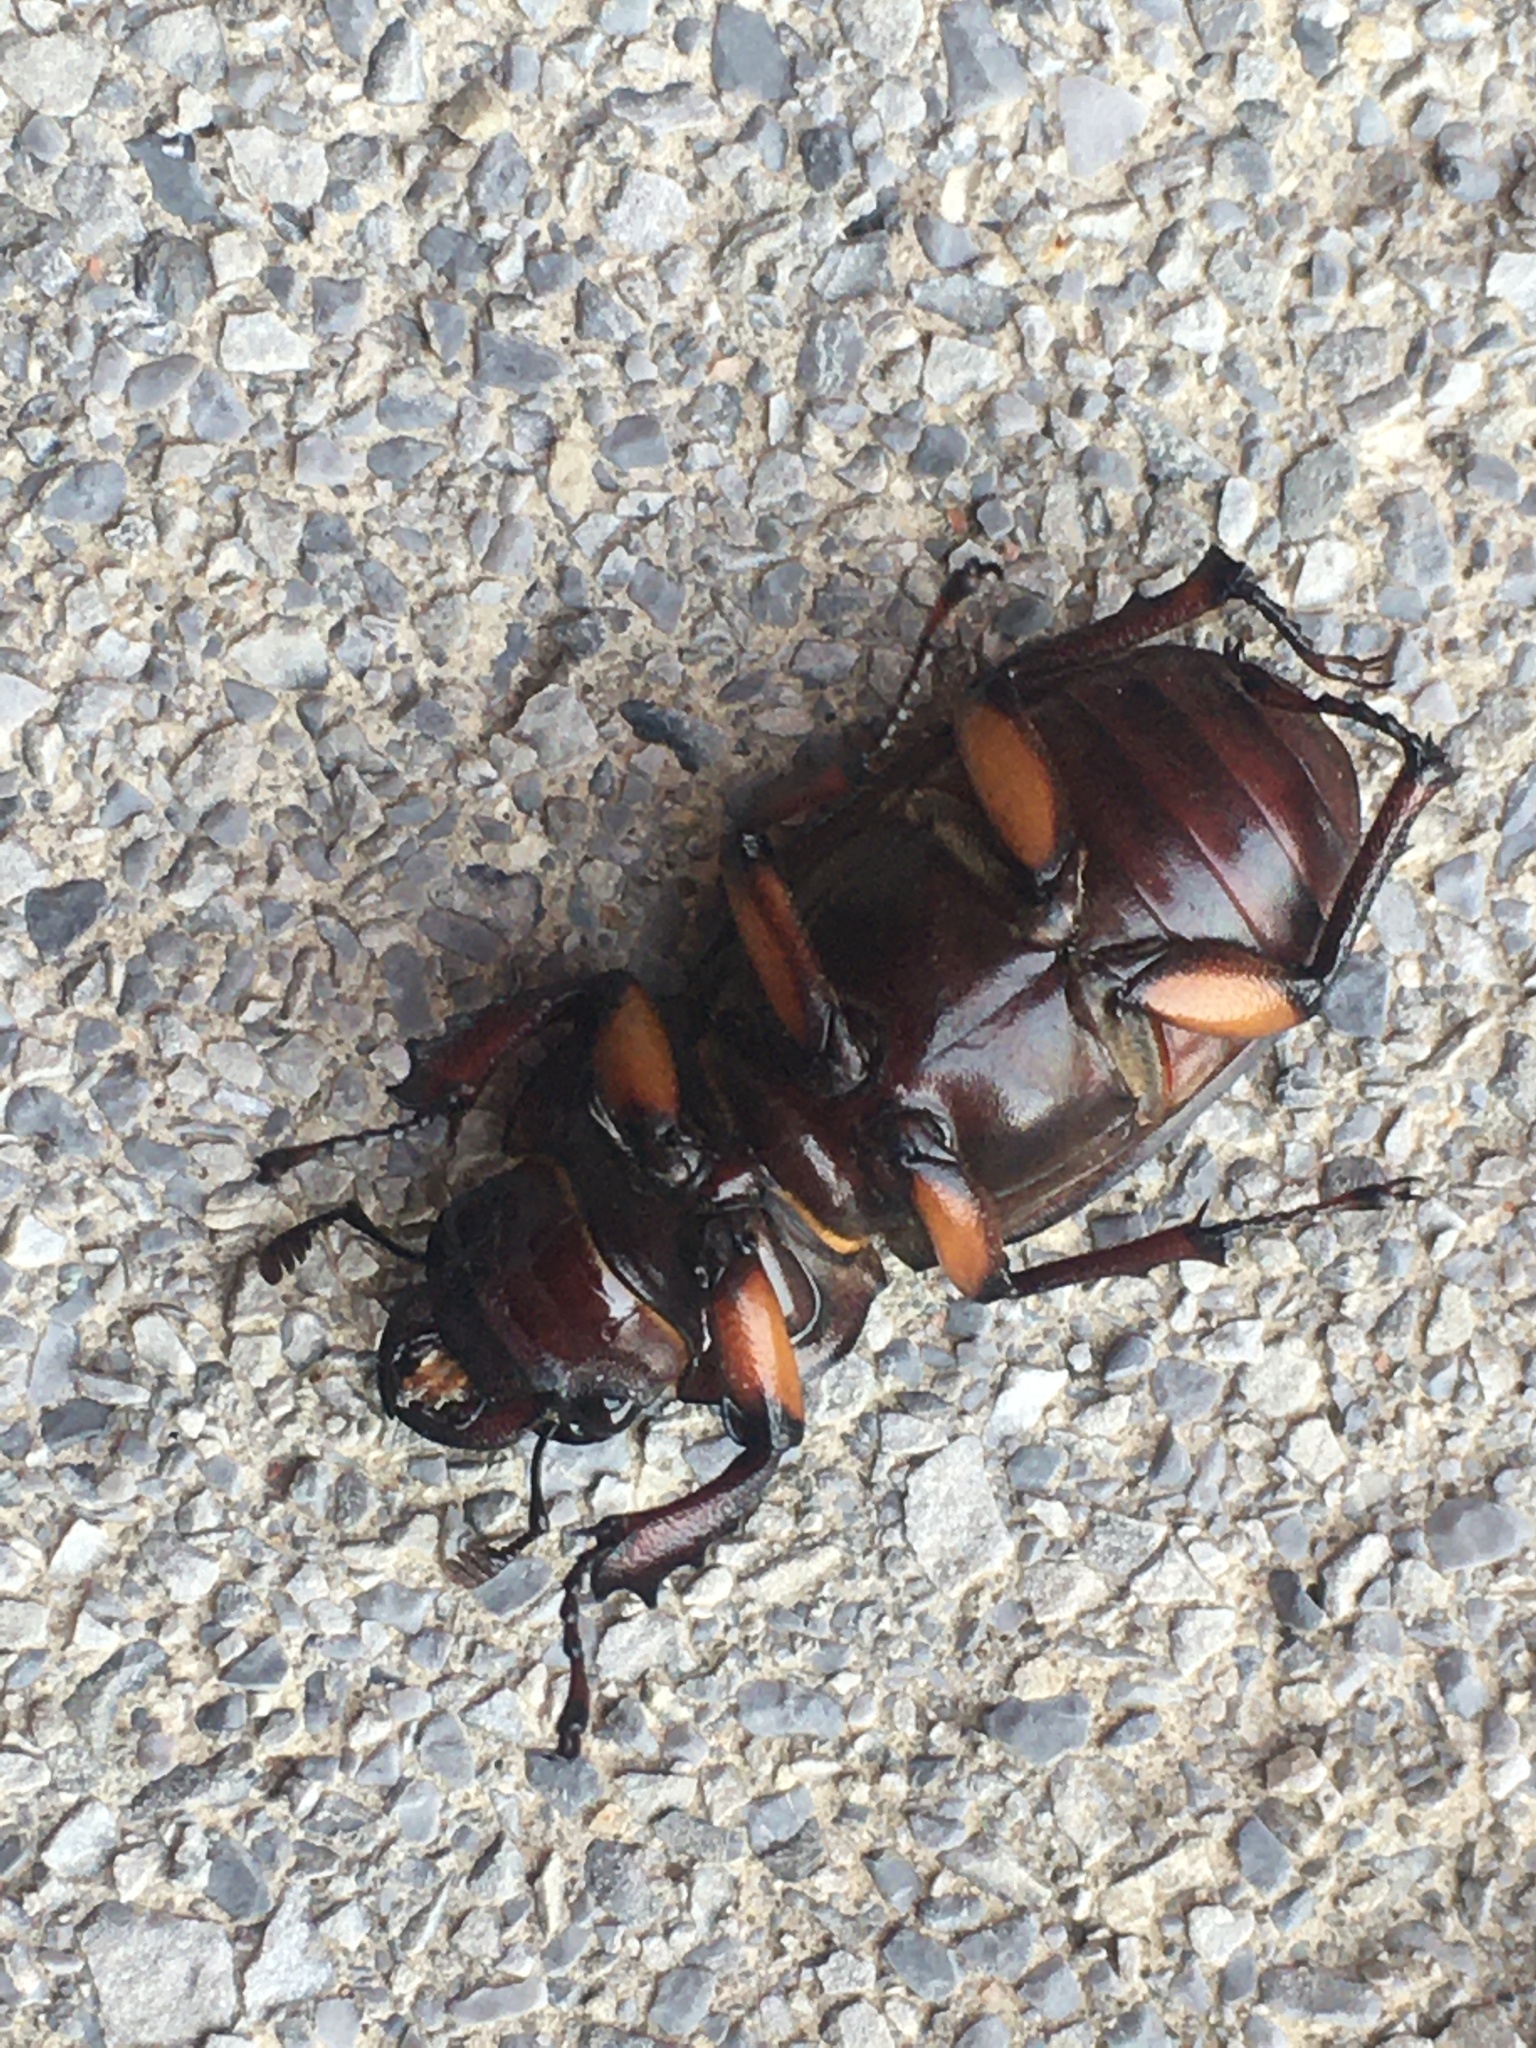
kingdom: Animalia
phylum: Arthropoda
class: Insecta
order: Coleoptera
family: Lucanidae
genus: Lucanus
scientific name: Lucanus capreolus
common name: Stag beetle
